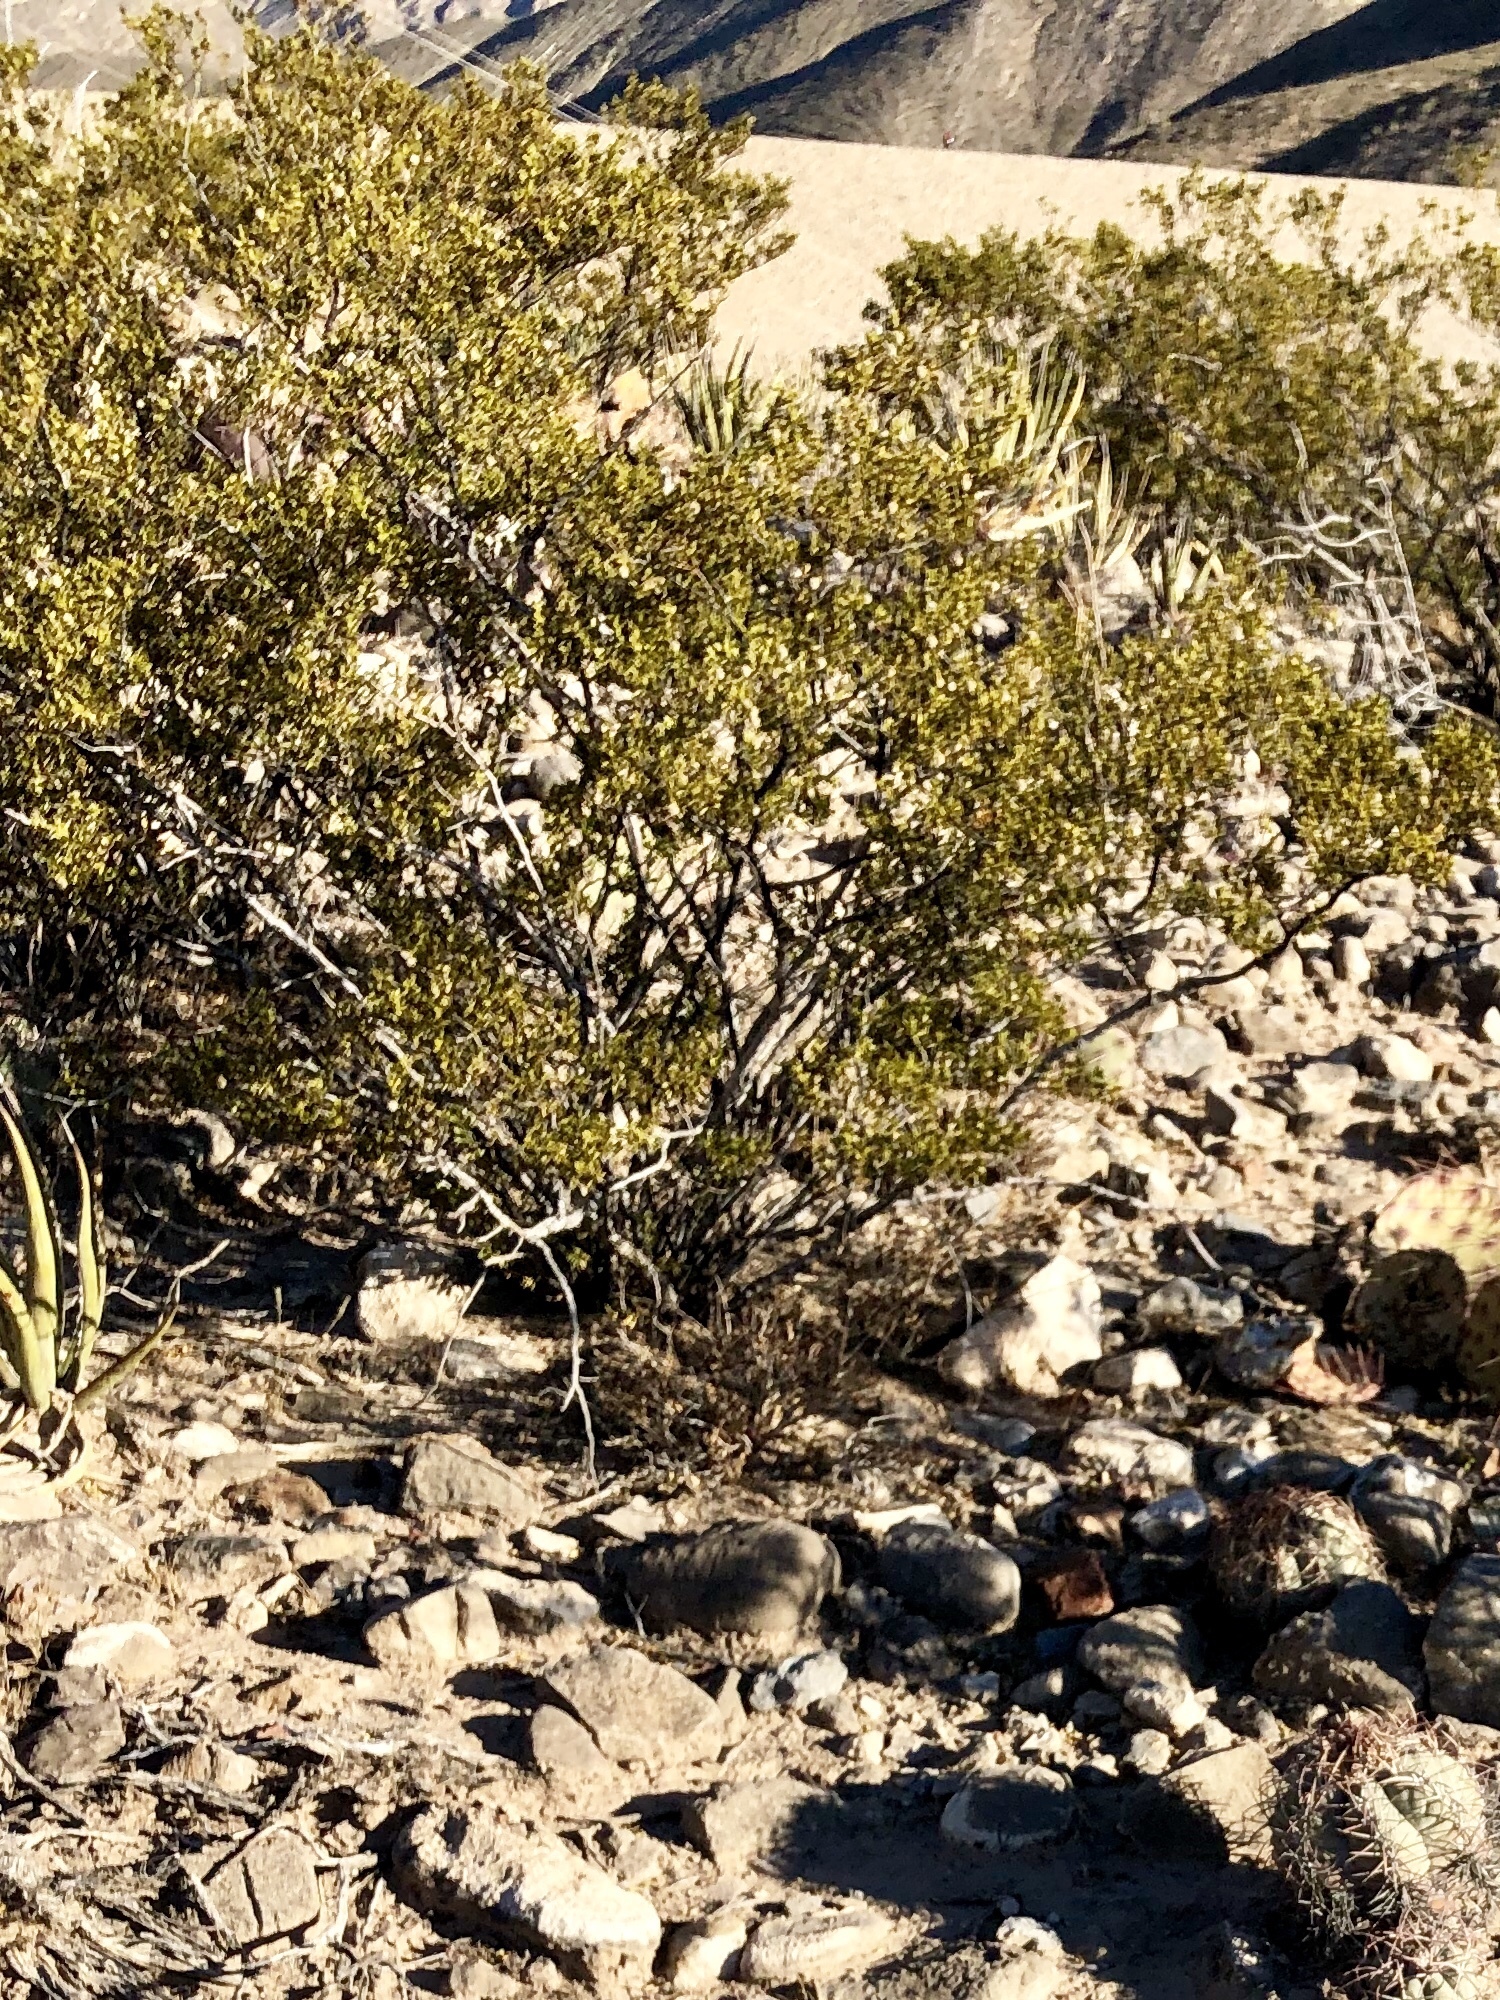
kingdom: Plantae
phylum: Tracheophyta
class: Magnoliopsida
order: Zygophyllales
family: Zygophyllaceae
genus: Larrea
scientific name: Larrea tridentata
